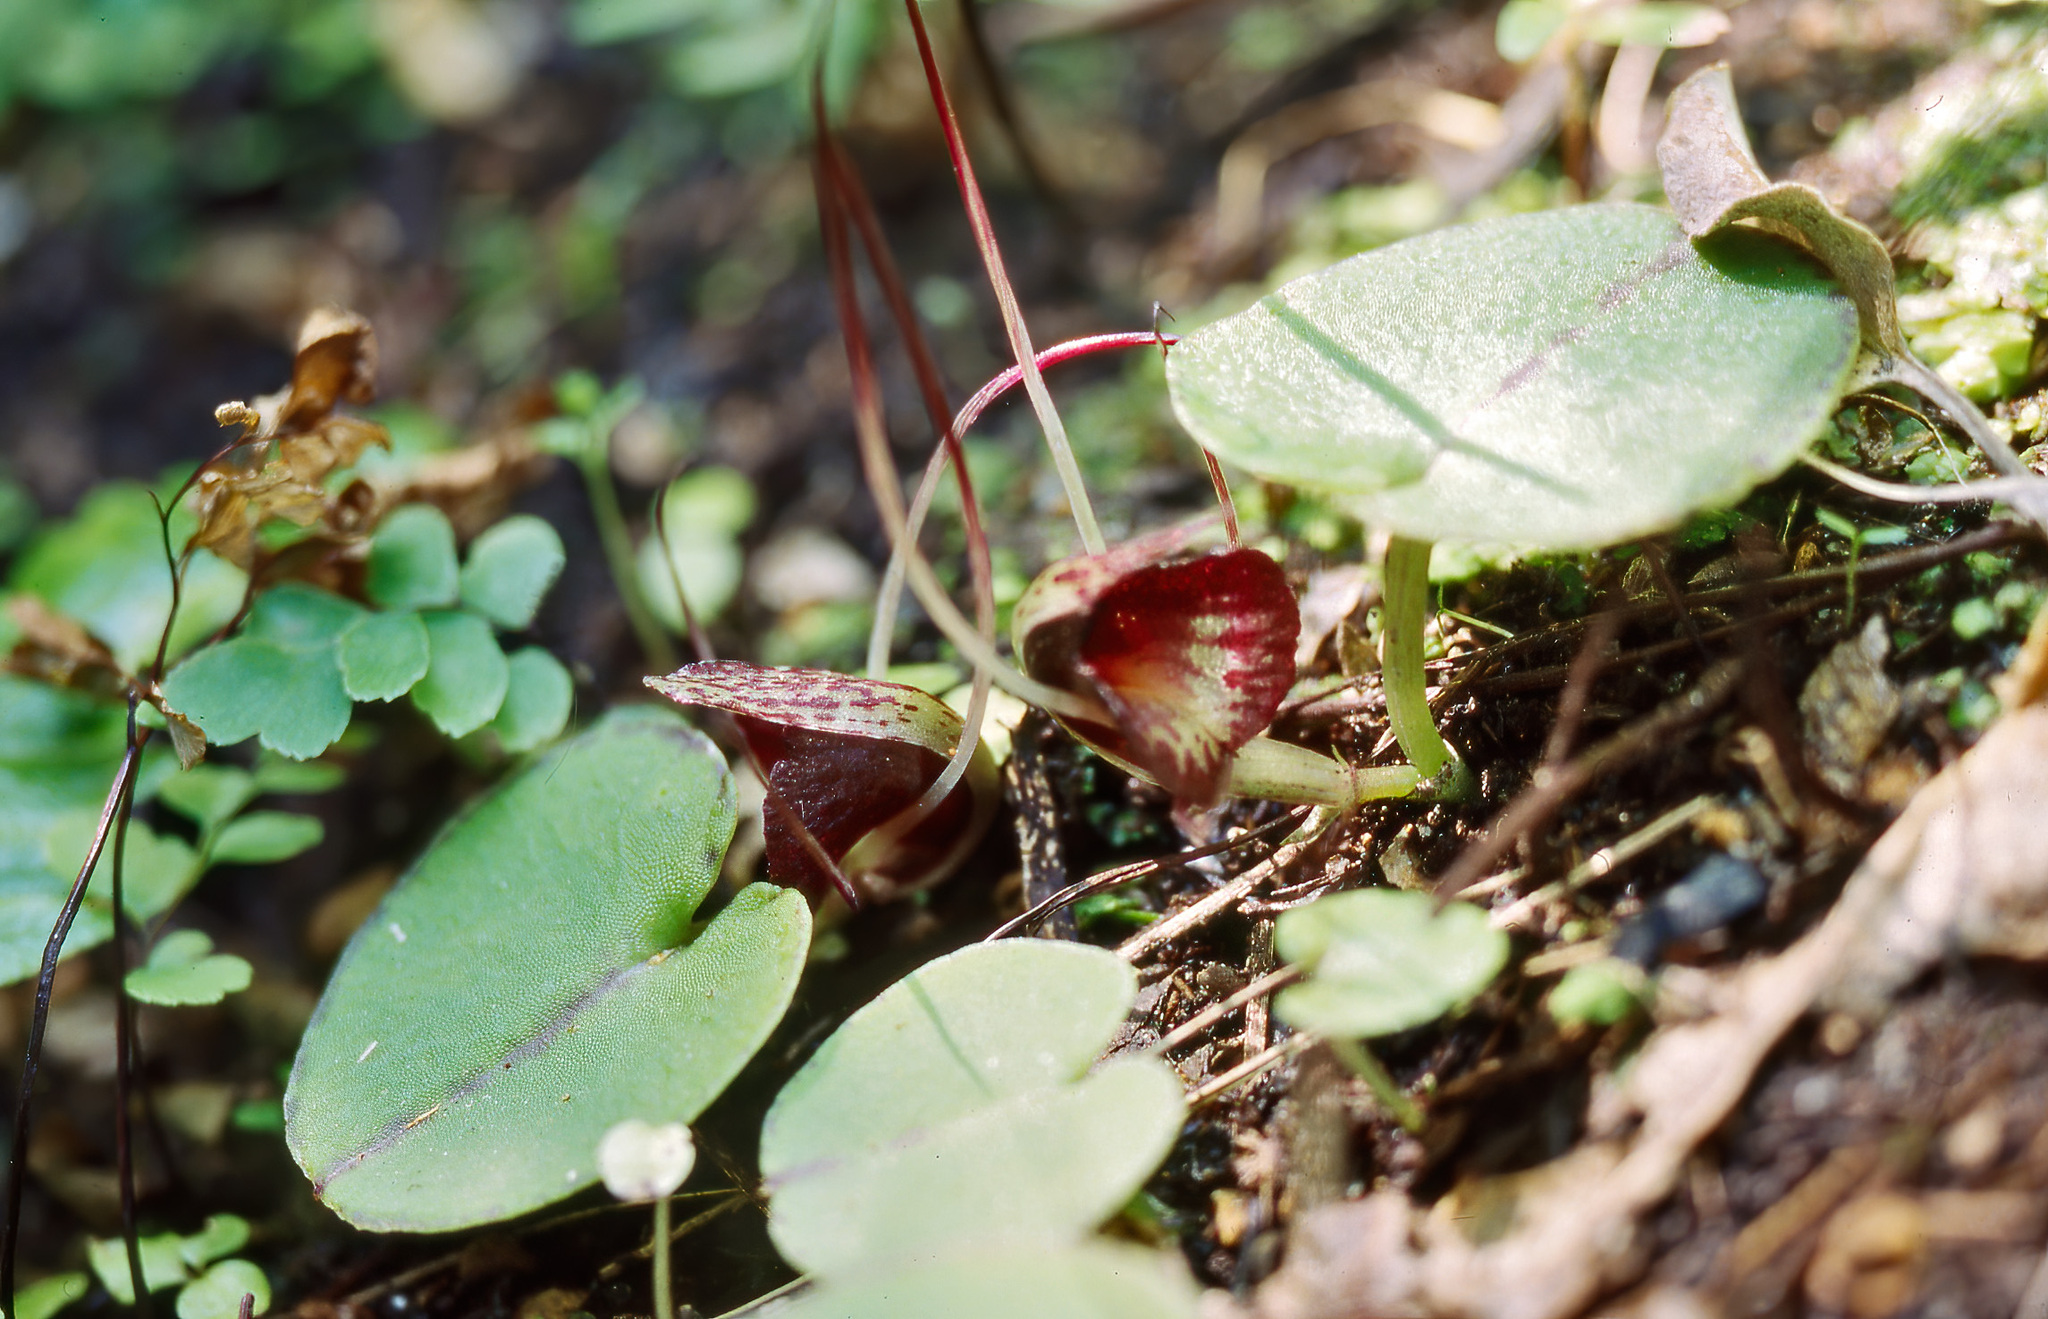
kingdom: Plantae
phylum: Tracheophyta
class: Liliopsida
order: Asparagales
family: Orchidaceae
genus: Corybas
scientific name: Corybas macranthus
